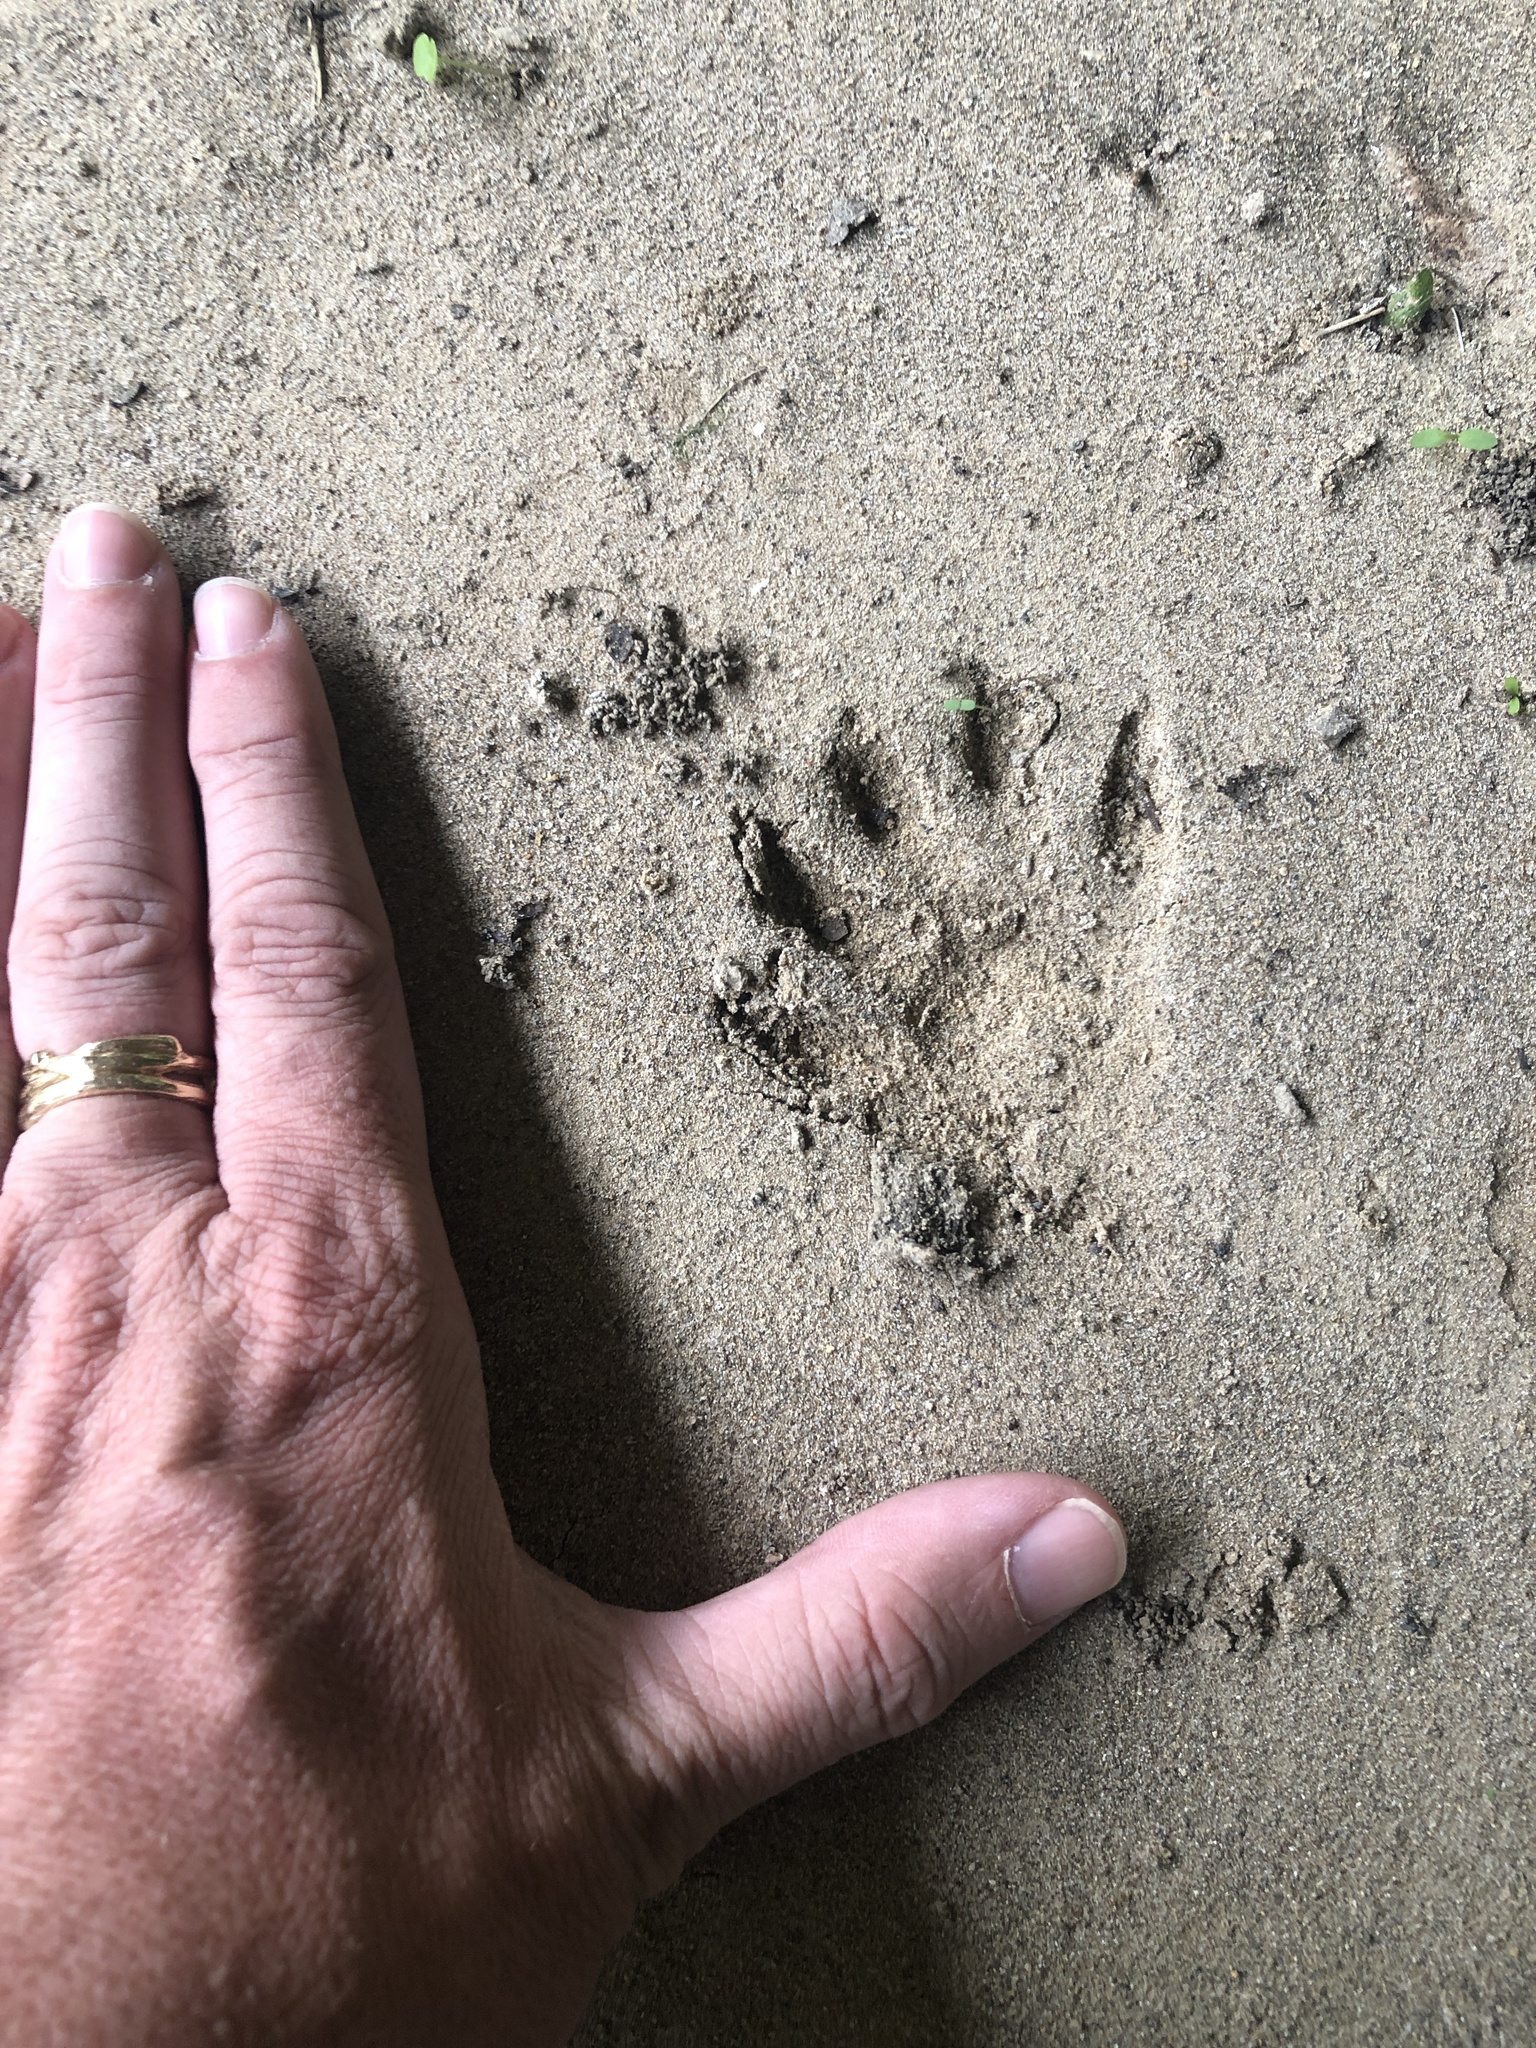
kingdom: Animalia
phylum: Chordata
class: Mammalia
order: Carnivora
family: Procyonidae
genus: Procyon
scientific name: Procyon lotor
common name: Raccoon
